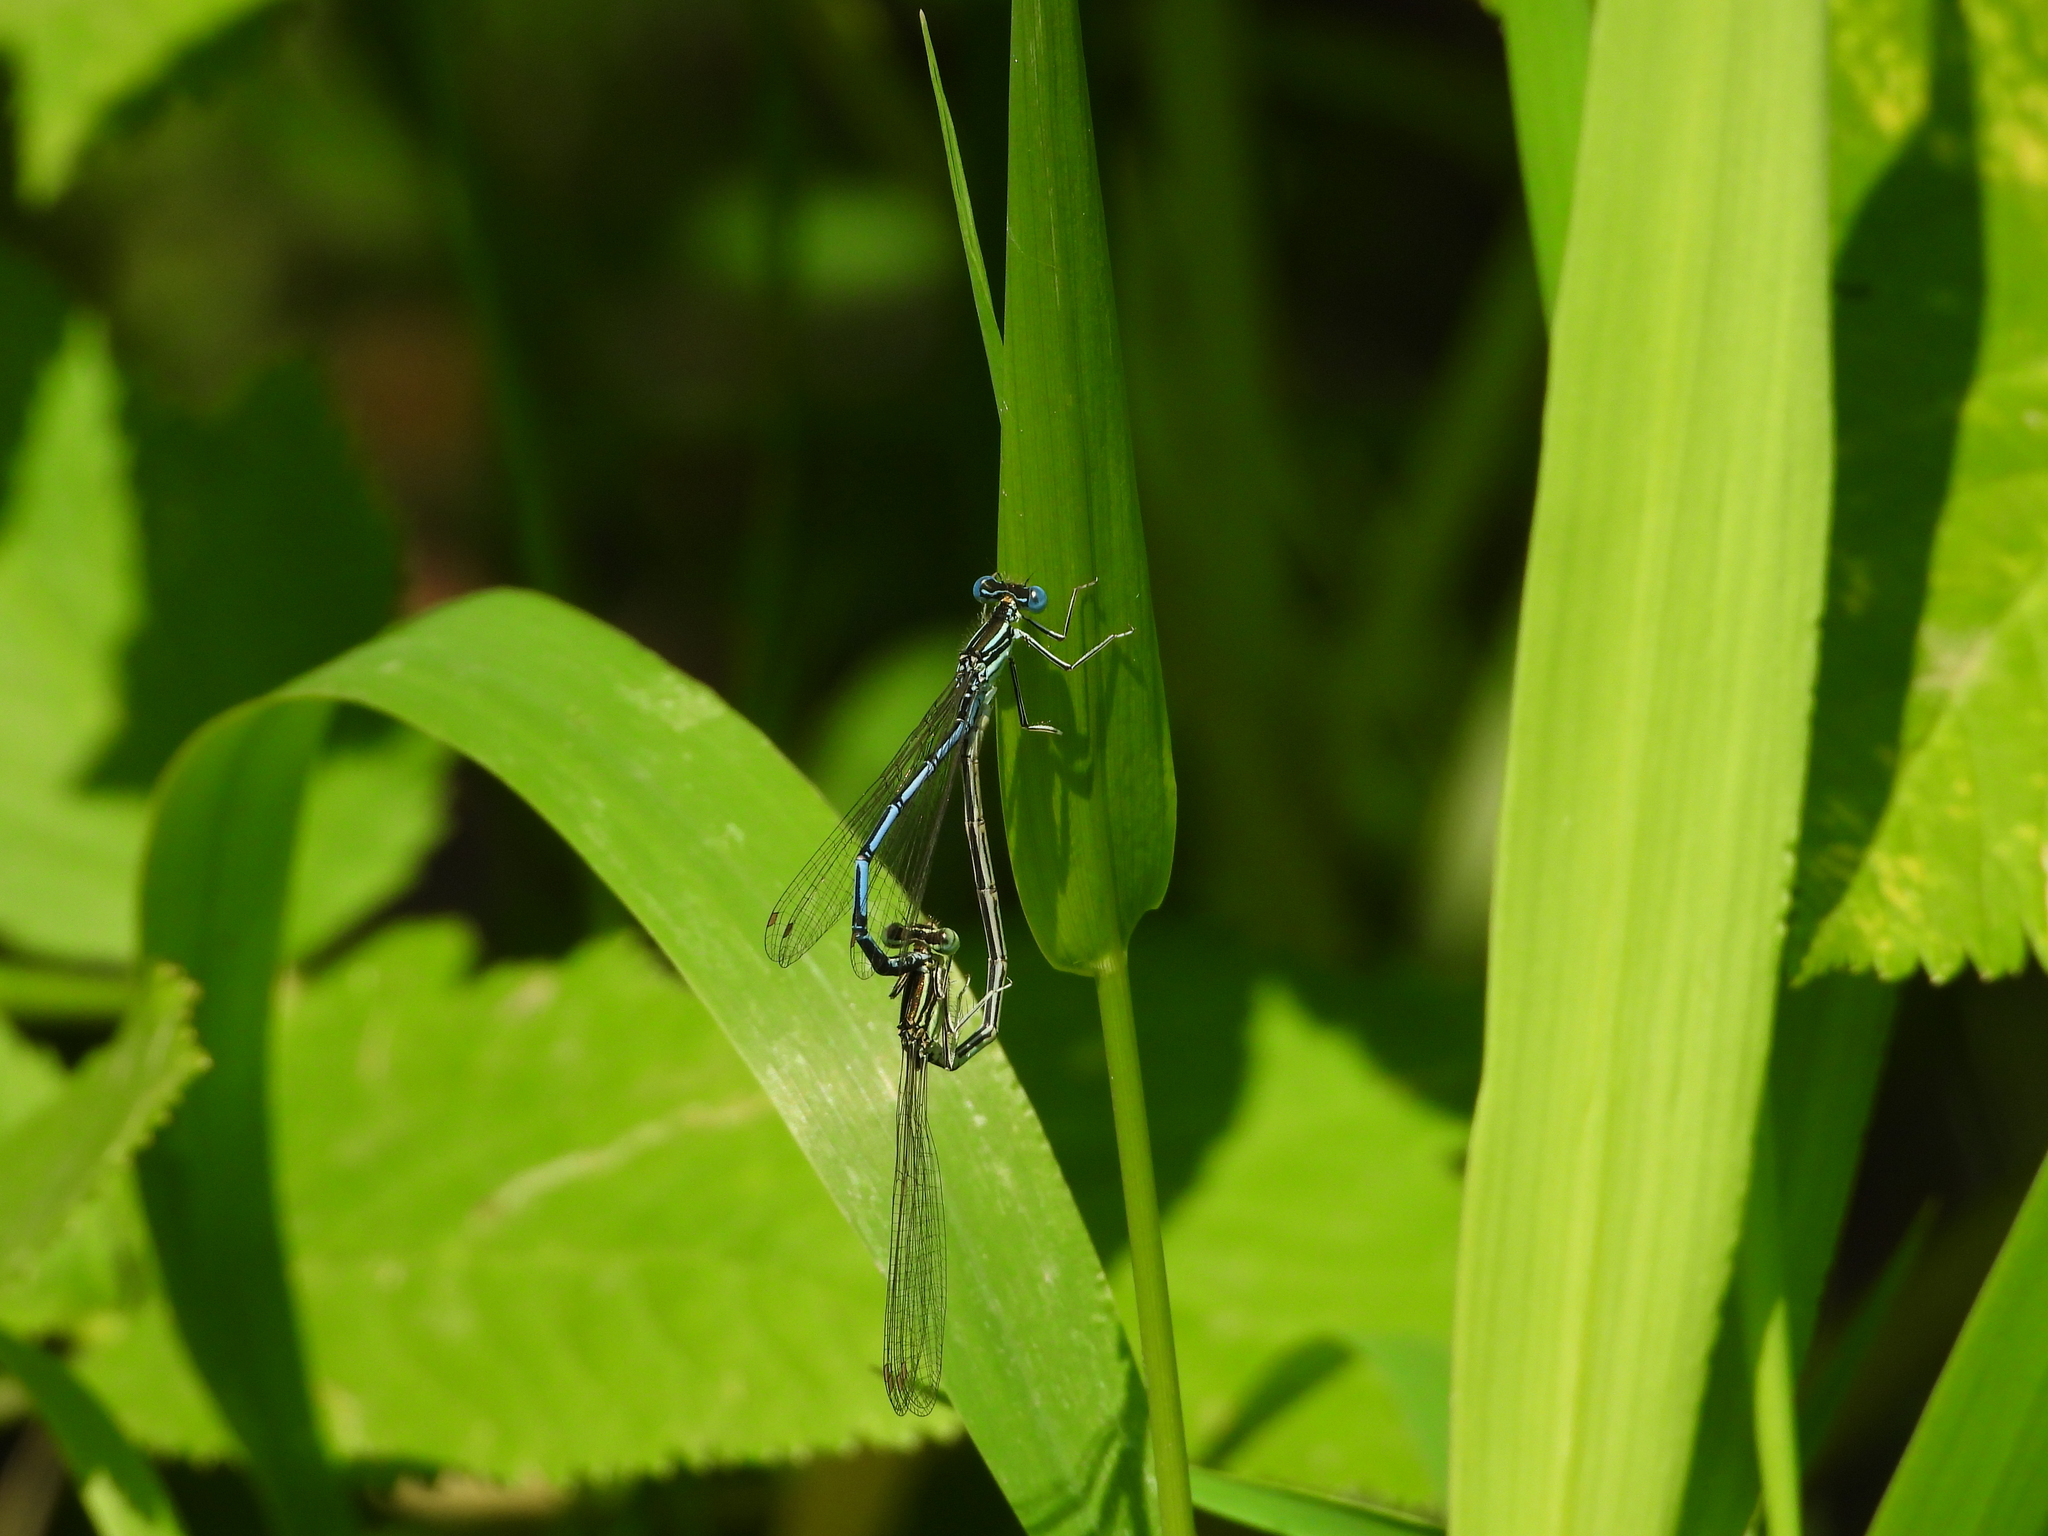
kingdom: Animalia
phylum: Arthropoda
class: Insecta
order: Odonata
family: Platycnemididae
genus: Platycnemis
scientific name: Platycnemis pennipes
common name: White-legged damselfly
